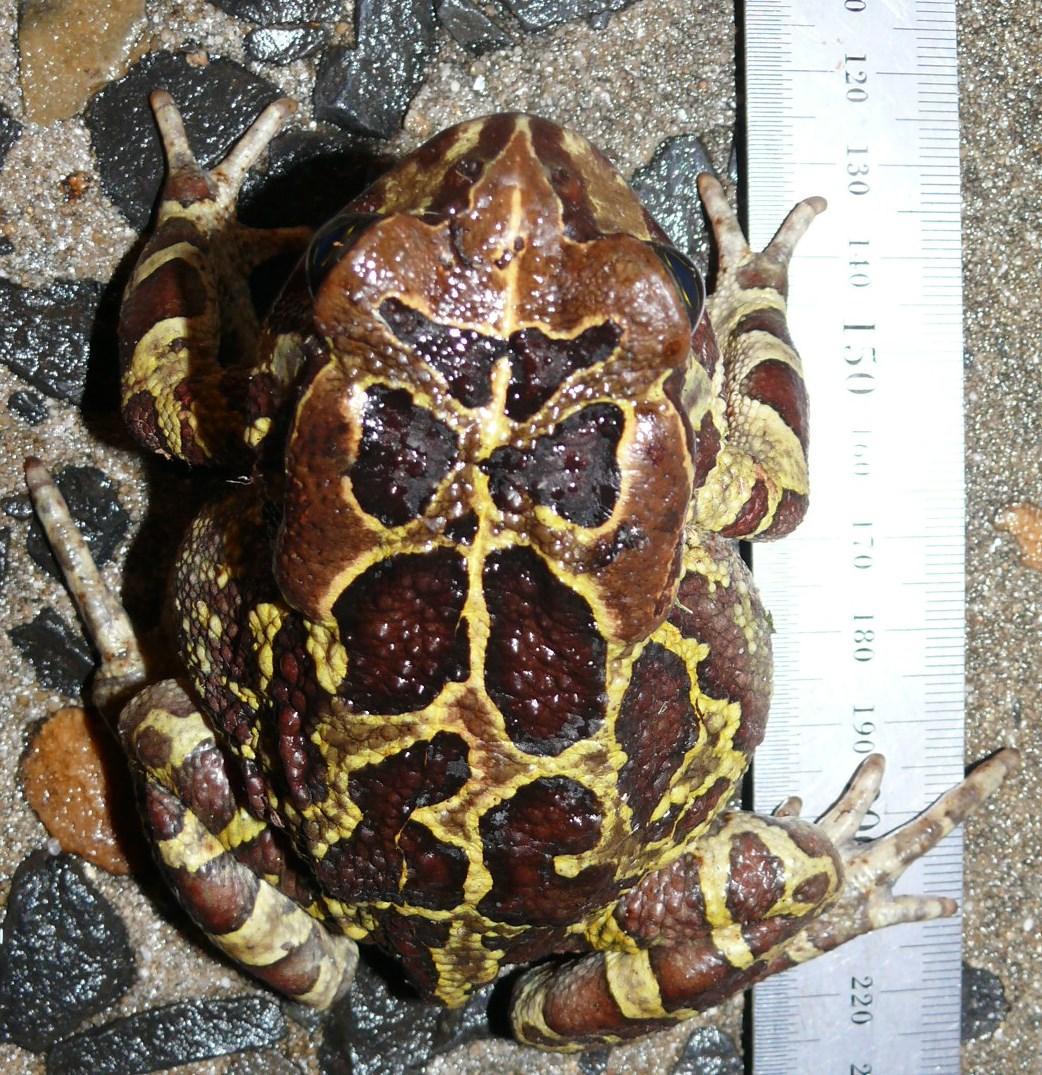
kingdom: Animalia
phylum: Chordata
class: Amphibia
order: Anura
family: Bufonidae
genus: Sclerophrys
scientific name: Sclerophrys pantherina
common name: Panther toad
